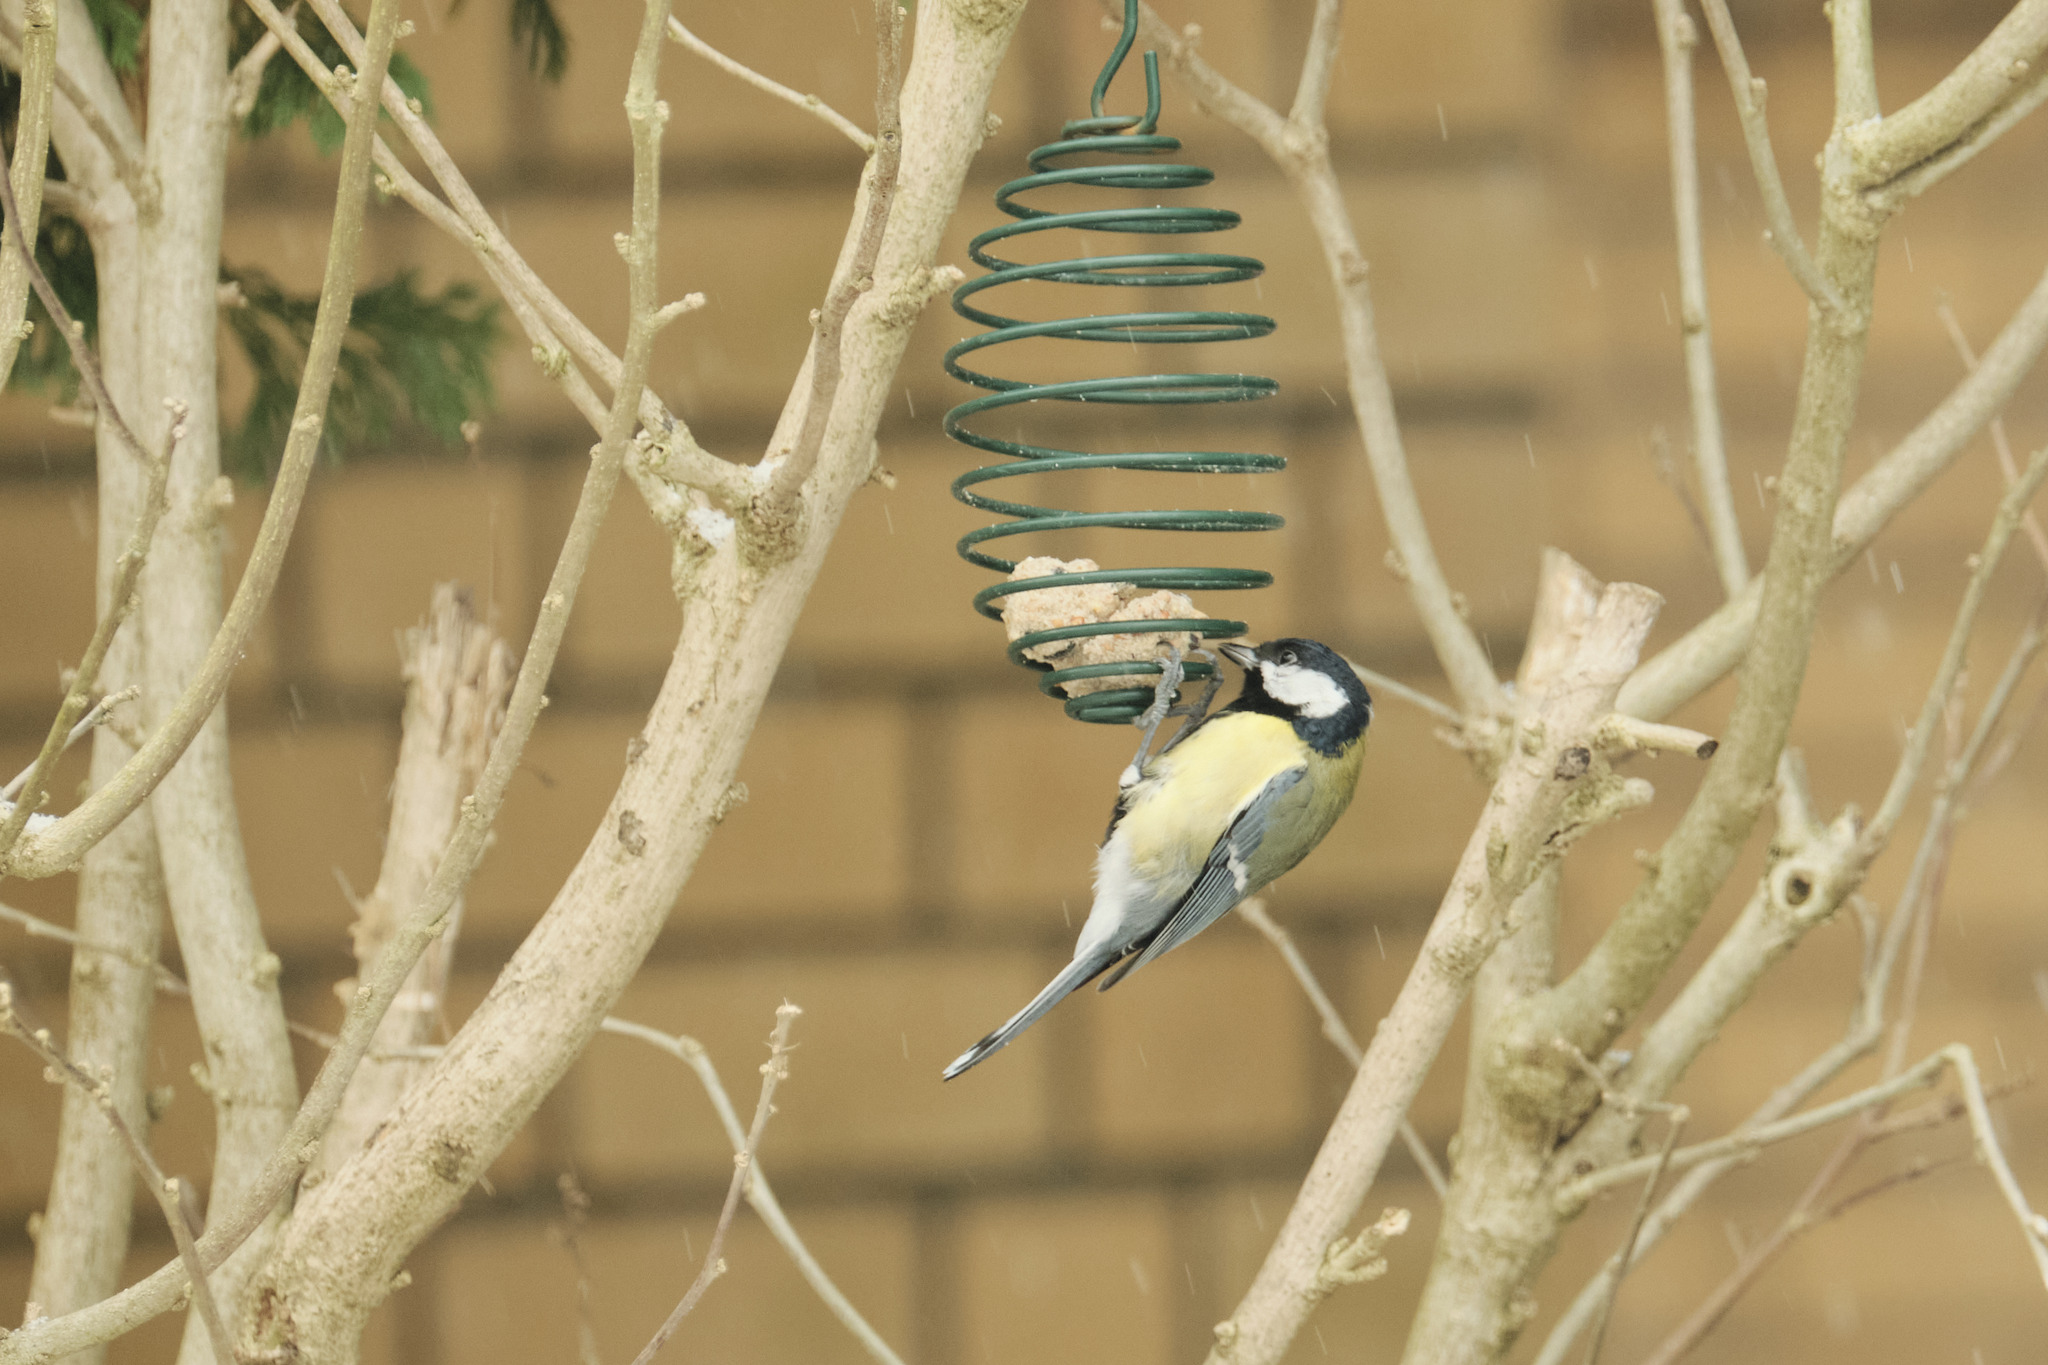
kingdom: Animalia
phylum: Chordata
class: Aves
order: Passeriformes
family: Paridae
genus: Parus
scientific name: Parus major
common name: Great tit
